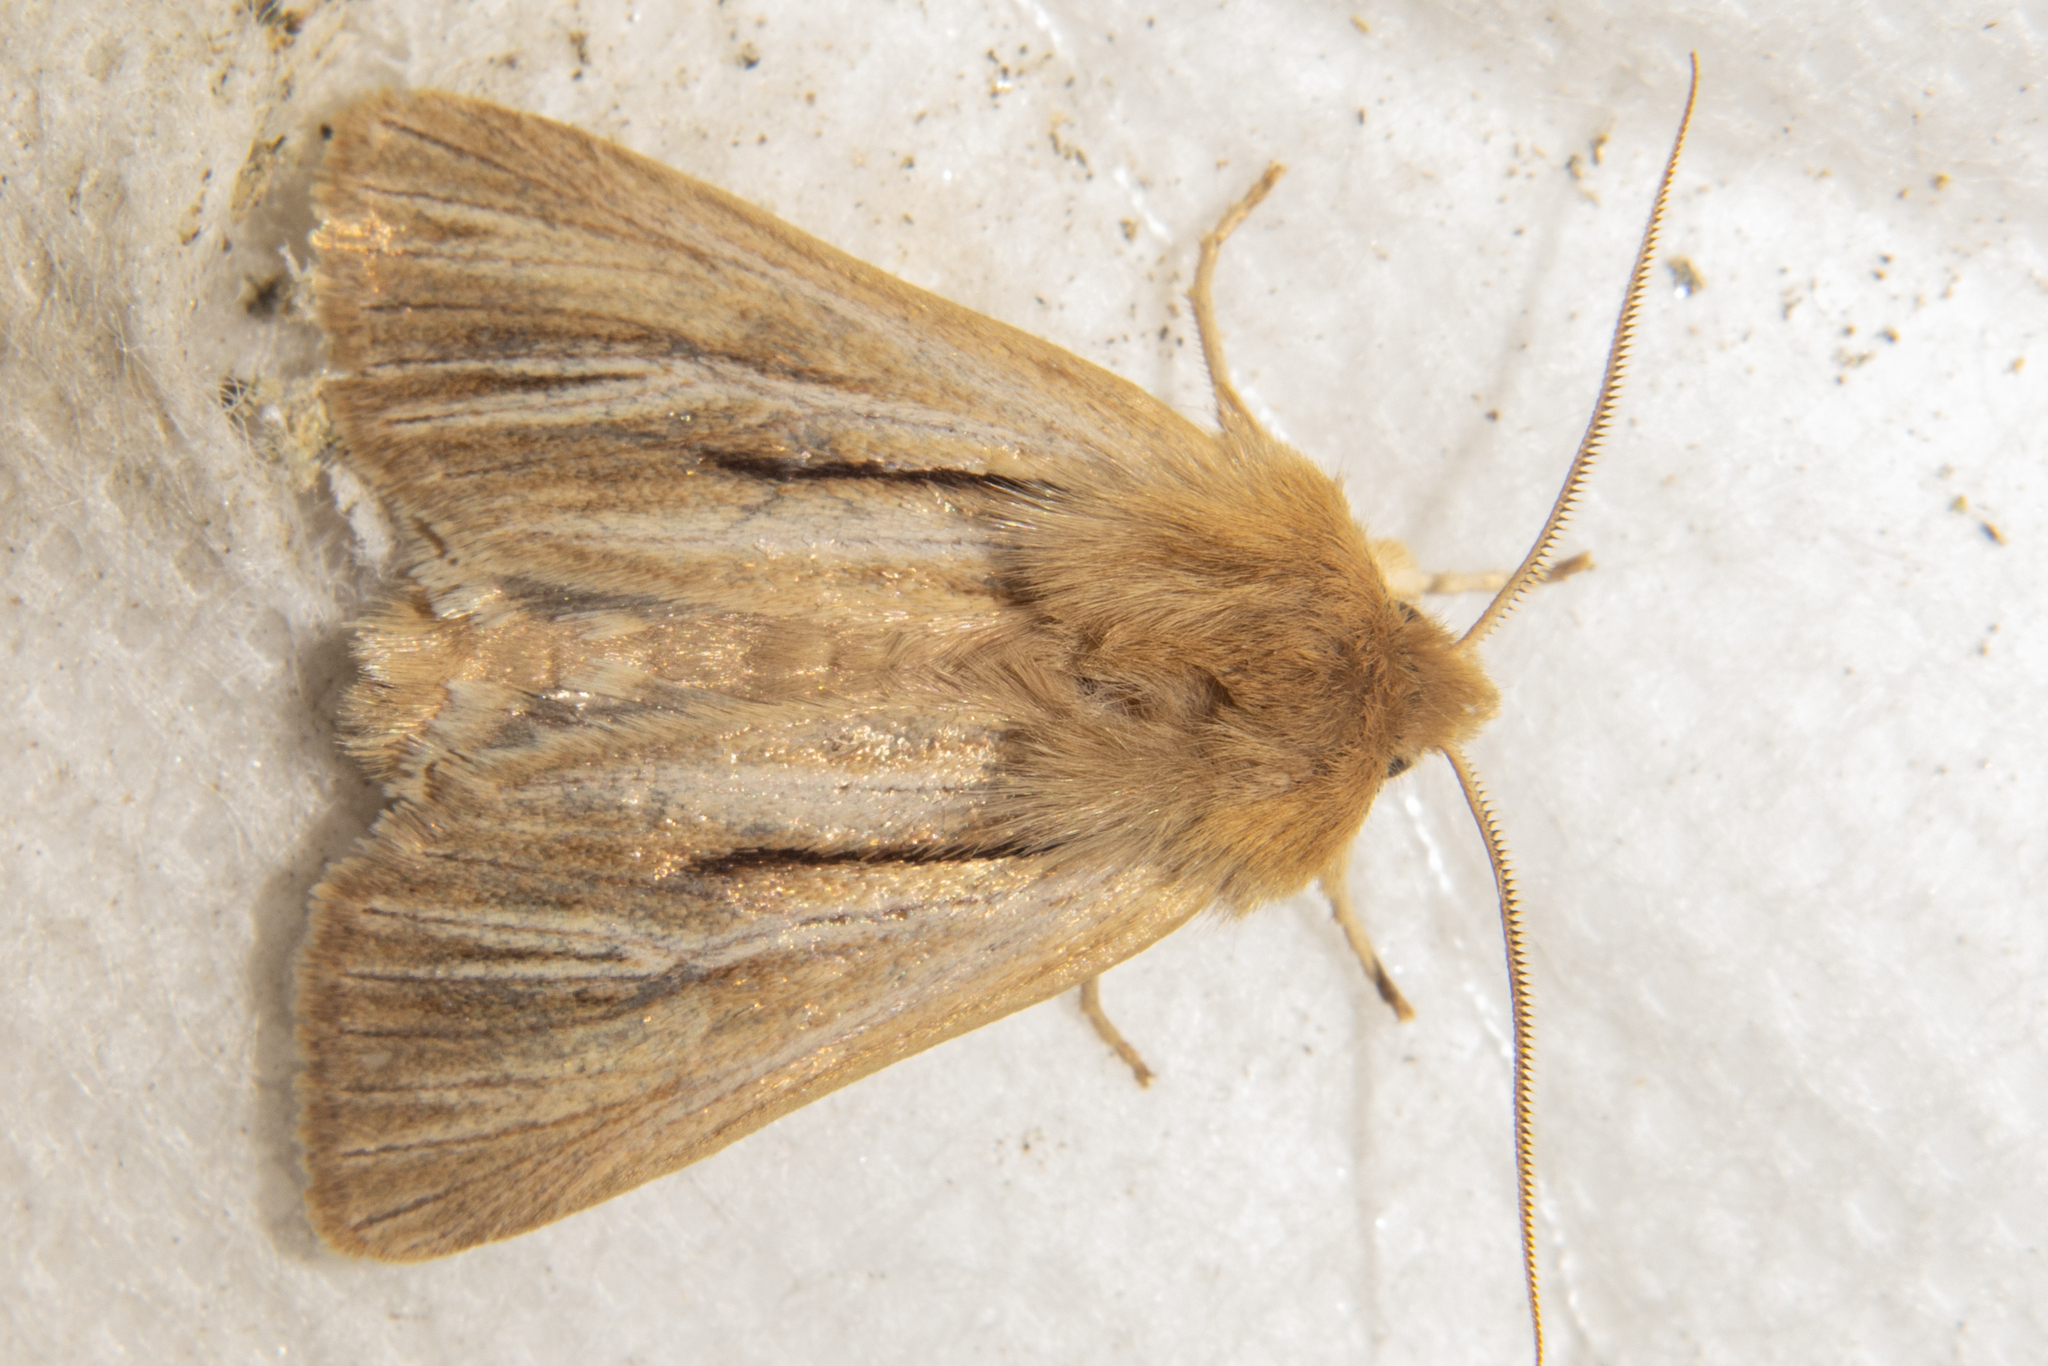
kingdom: Animalia
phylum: Arthropoda
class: Insecta
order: Lepidoptera
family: Noctuidae
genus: Ichneutica
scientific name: Ichneutica
